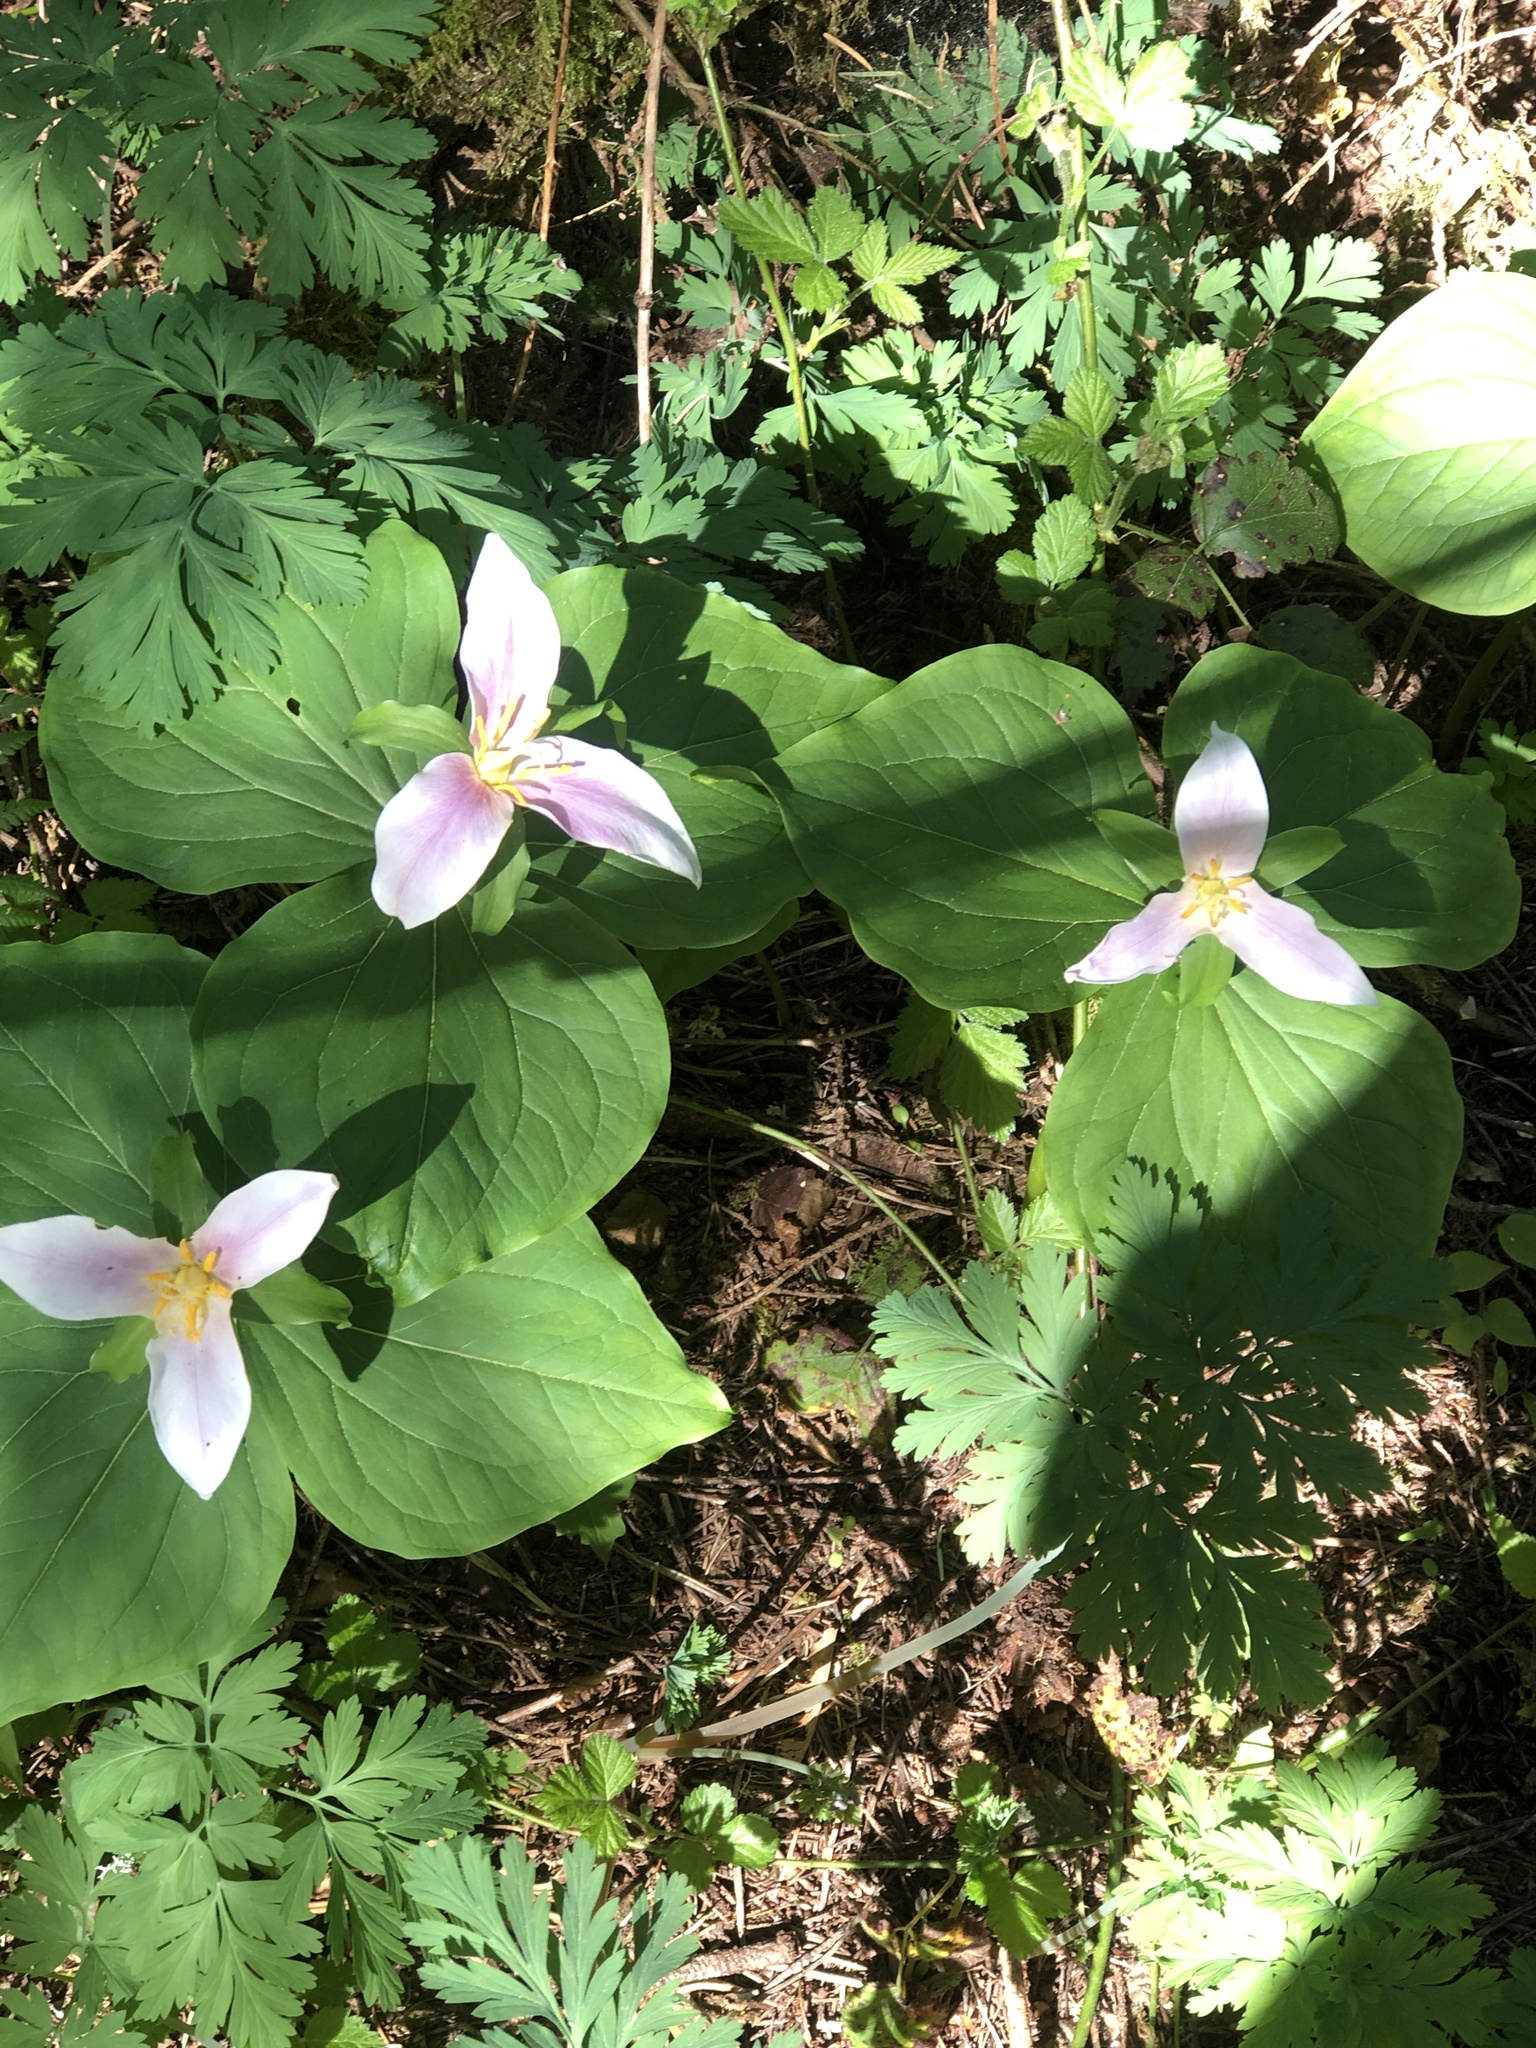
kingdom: Plantae
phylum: Tracheophyta
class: Liliopsida
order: Liliales
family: Melanthiaceae
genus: Trillium
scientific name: Trillium ovatum
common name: Pacific trillium
